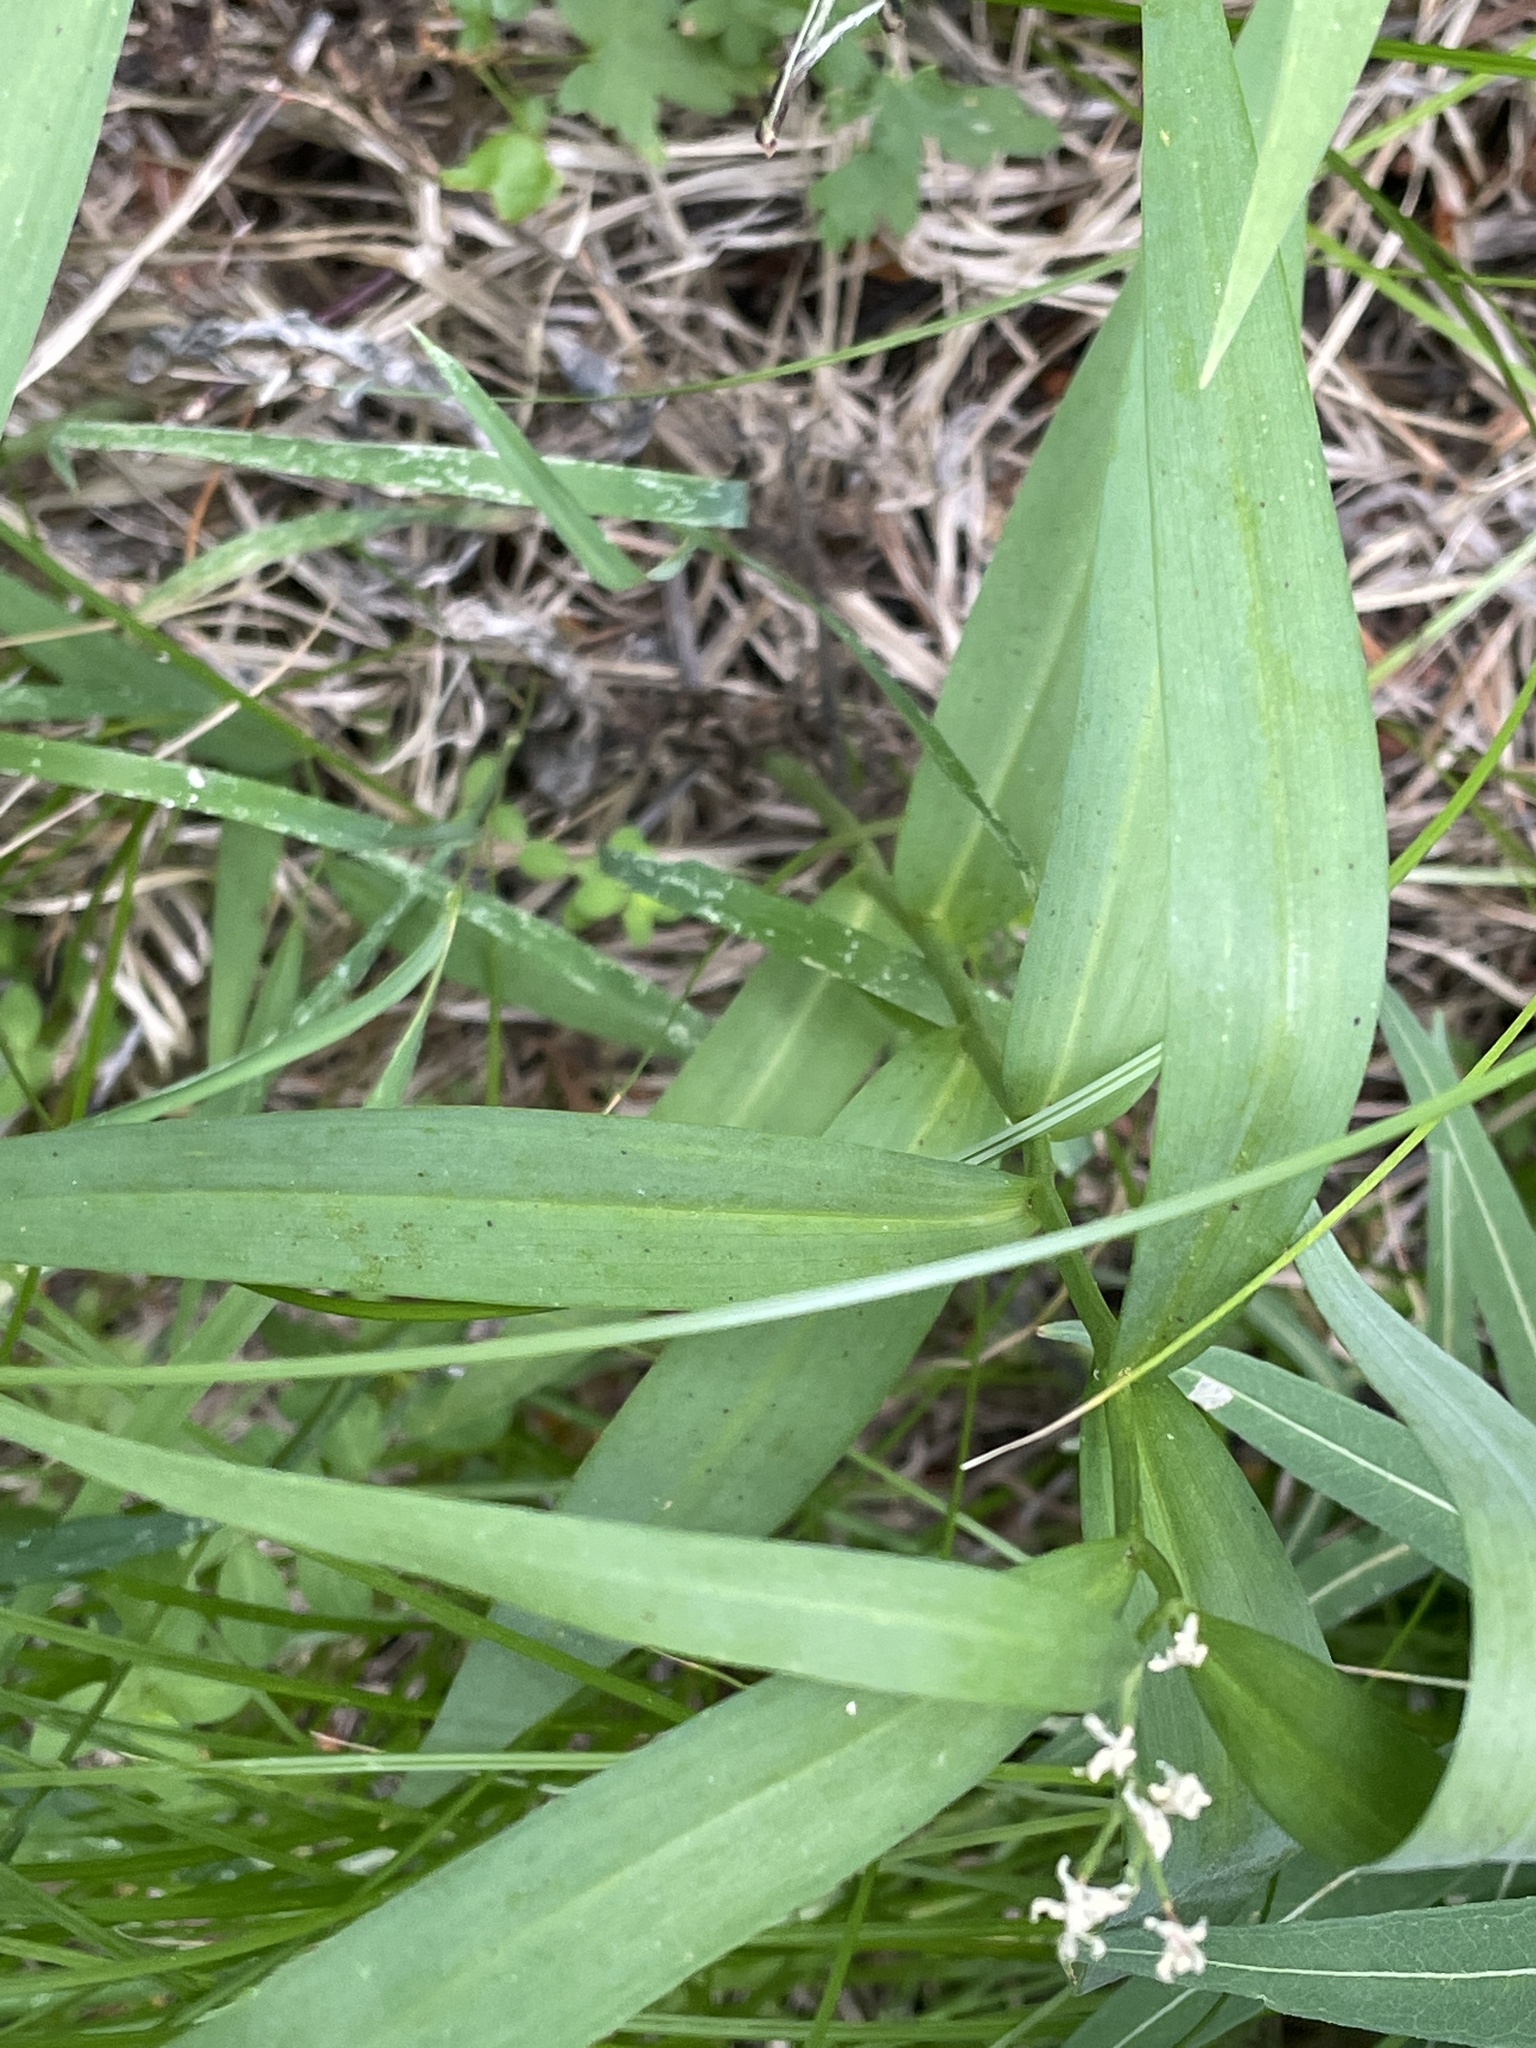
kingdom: Plantae
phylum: Tracheophyta
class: Liliopsida
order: Asparagales
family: Asparagaceae
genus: Maianthemum
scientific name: Maianthemum stellatum
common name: Little false solomon's seal
